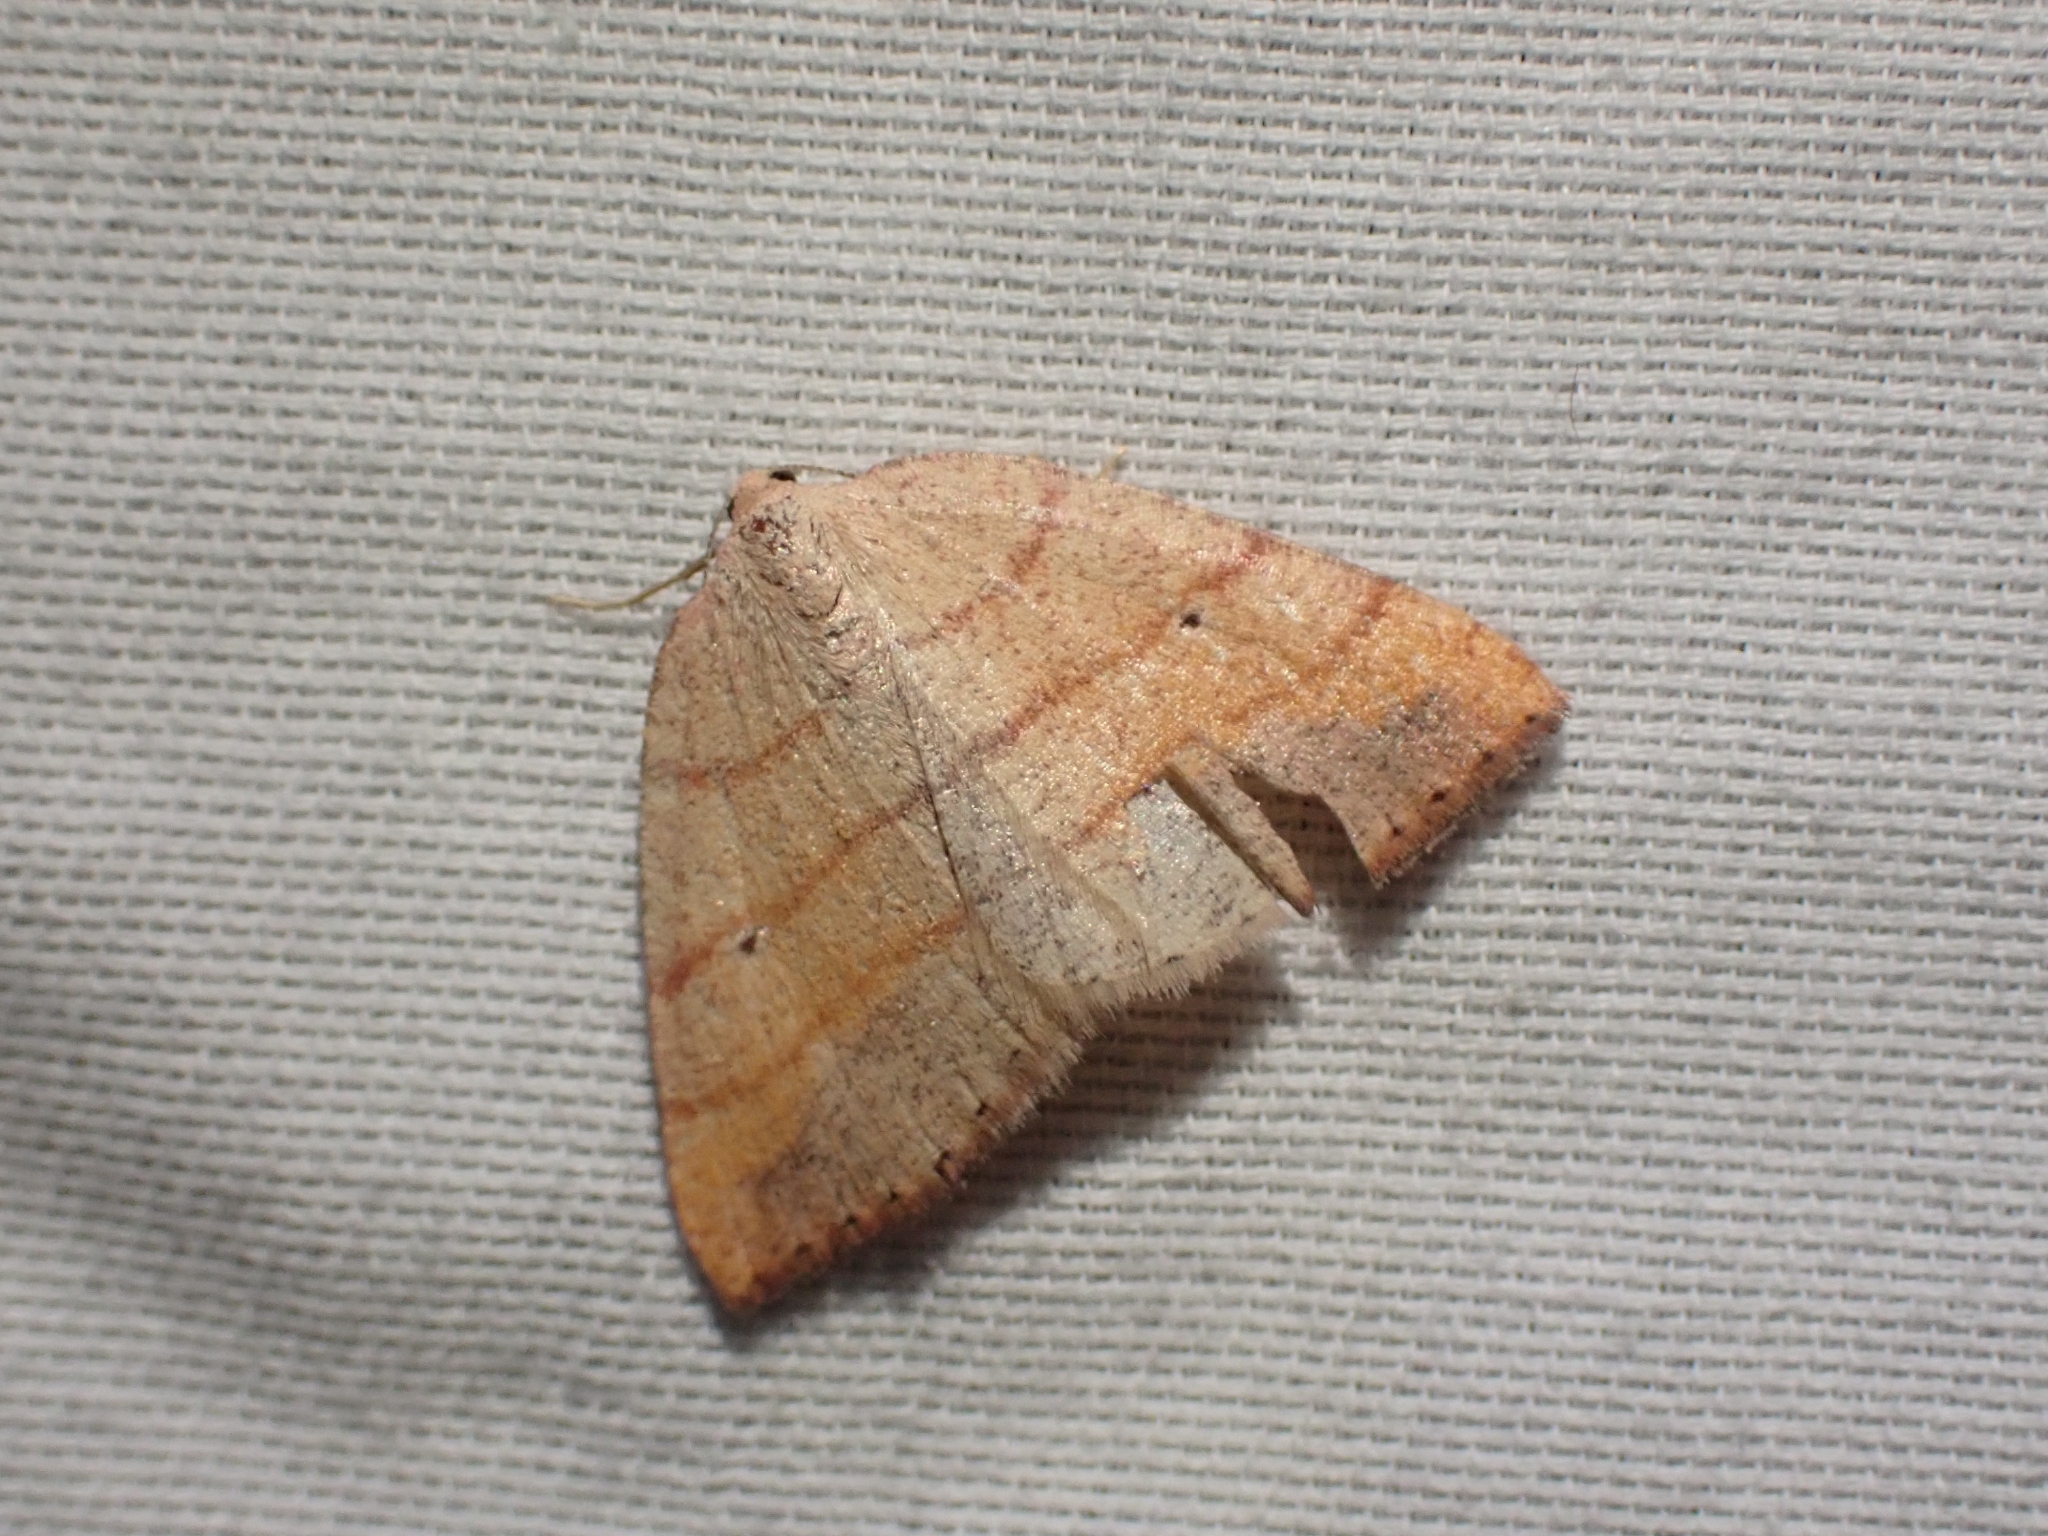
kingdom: Animalia
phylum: Arthropoda
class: Insecta
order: Lepidoptera
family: Geometridae
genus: Drepanulatrix
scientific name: Drepanulatrix carnearia
